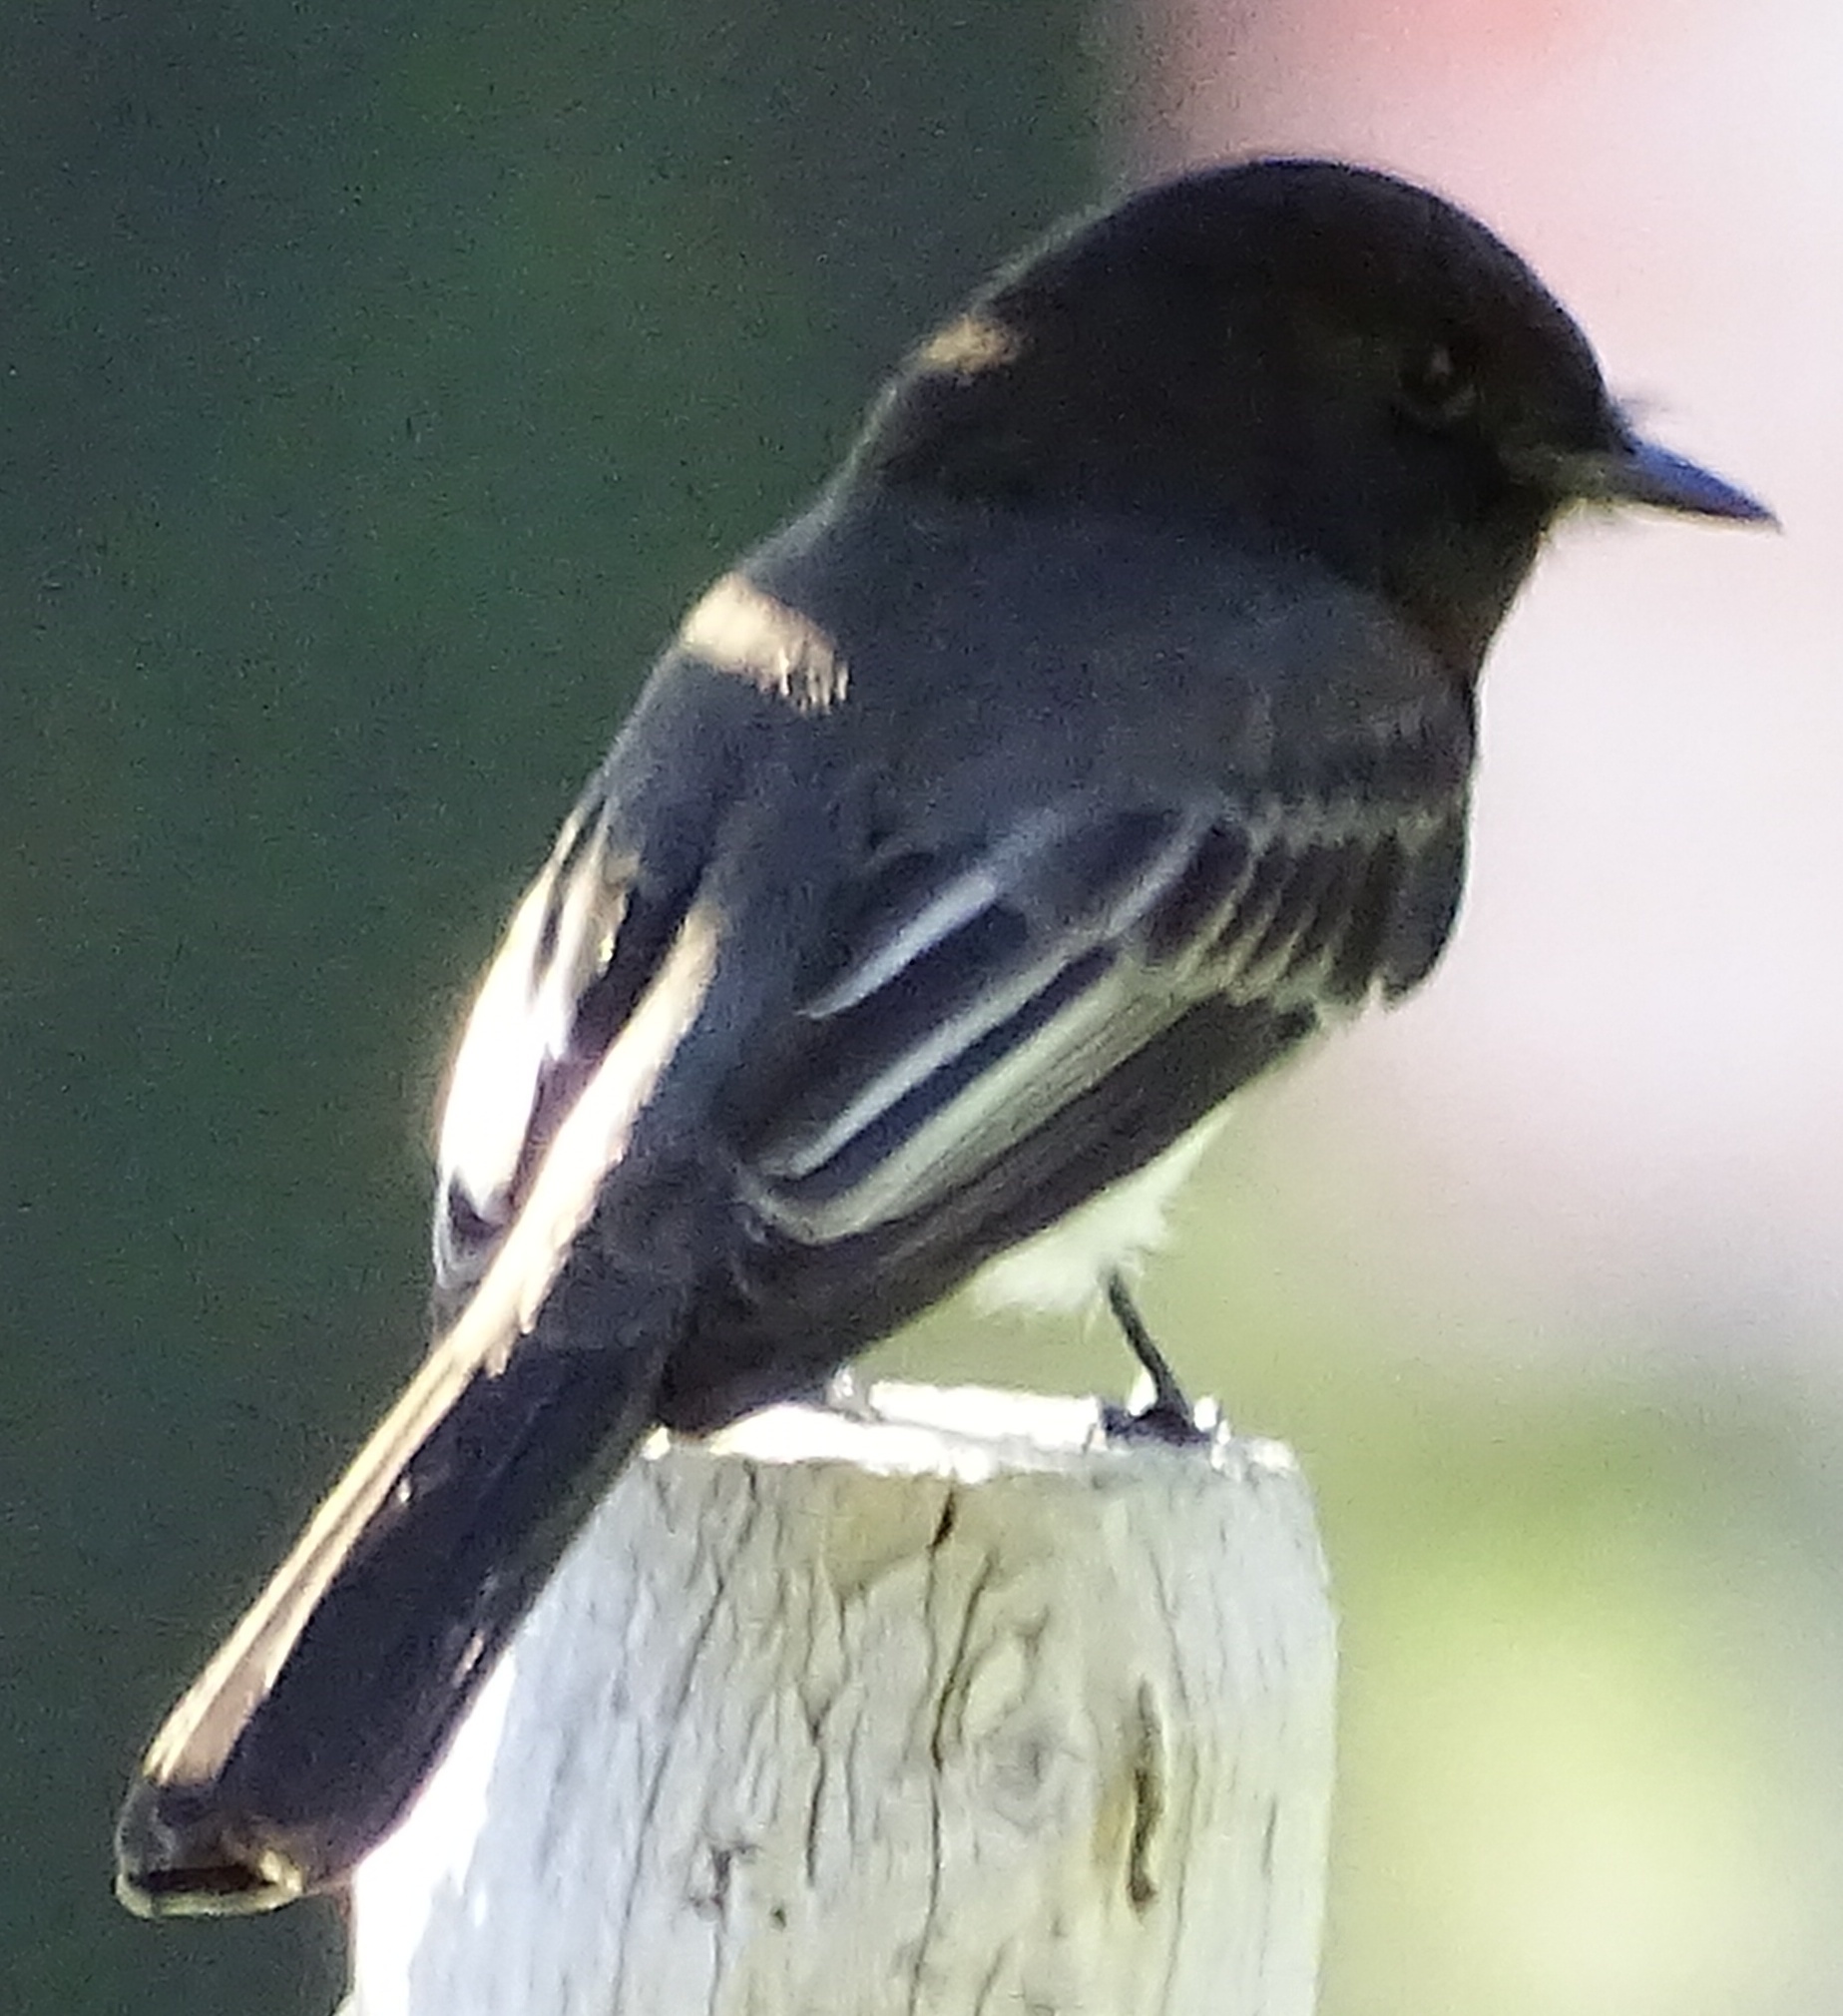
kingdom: Animalia
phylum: Chordata
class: Aves
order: Passeriformes
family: Tyrannidae
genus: Sayornis
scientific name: Sayornis nigricans
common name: Black phoebe
